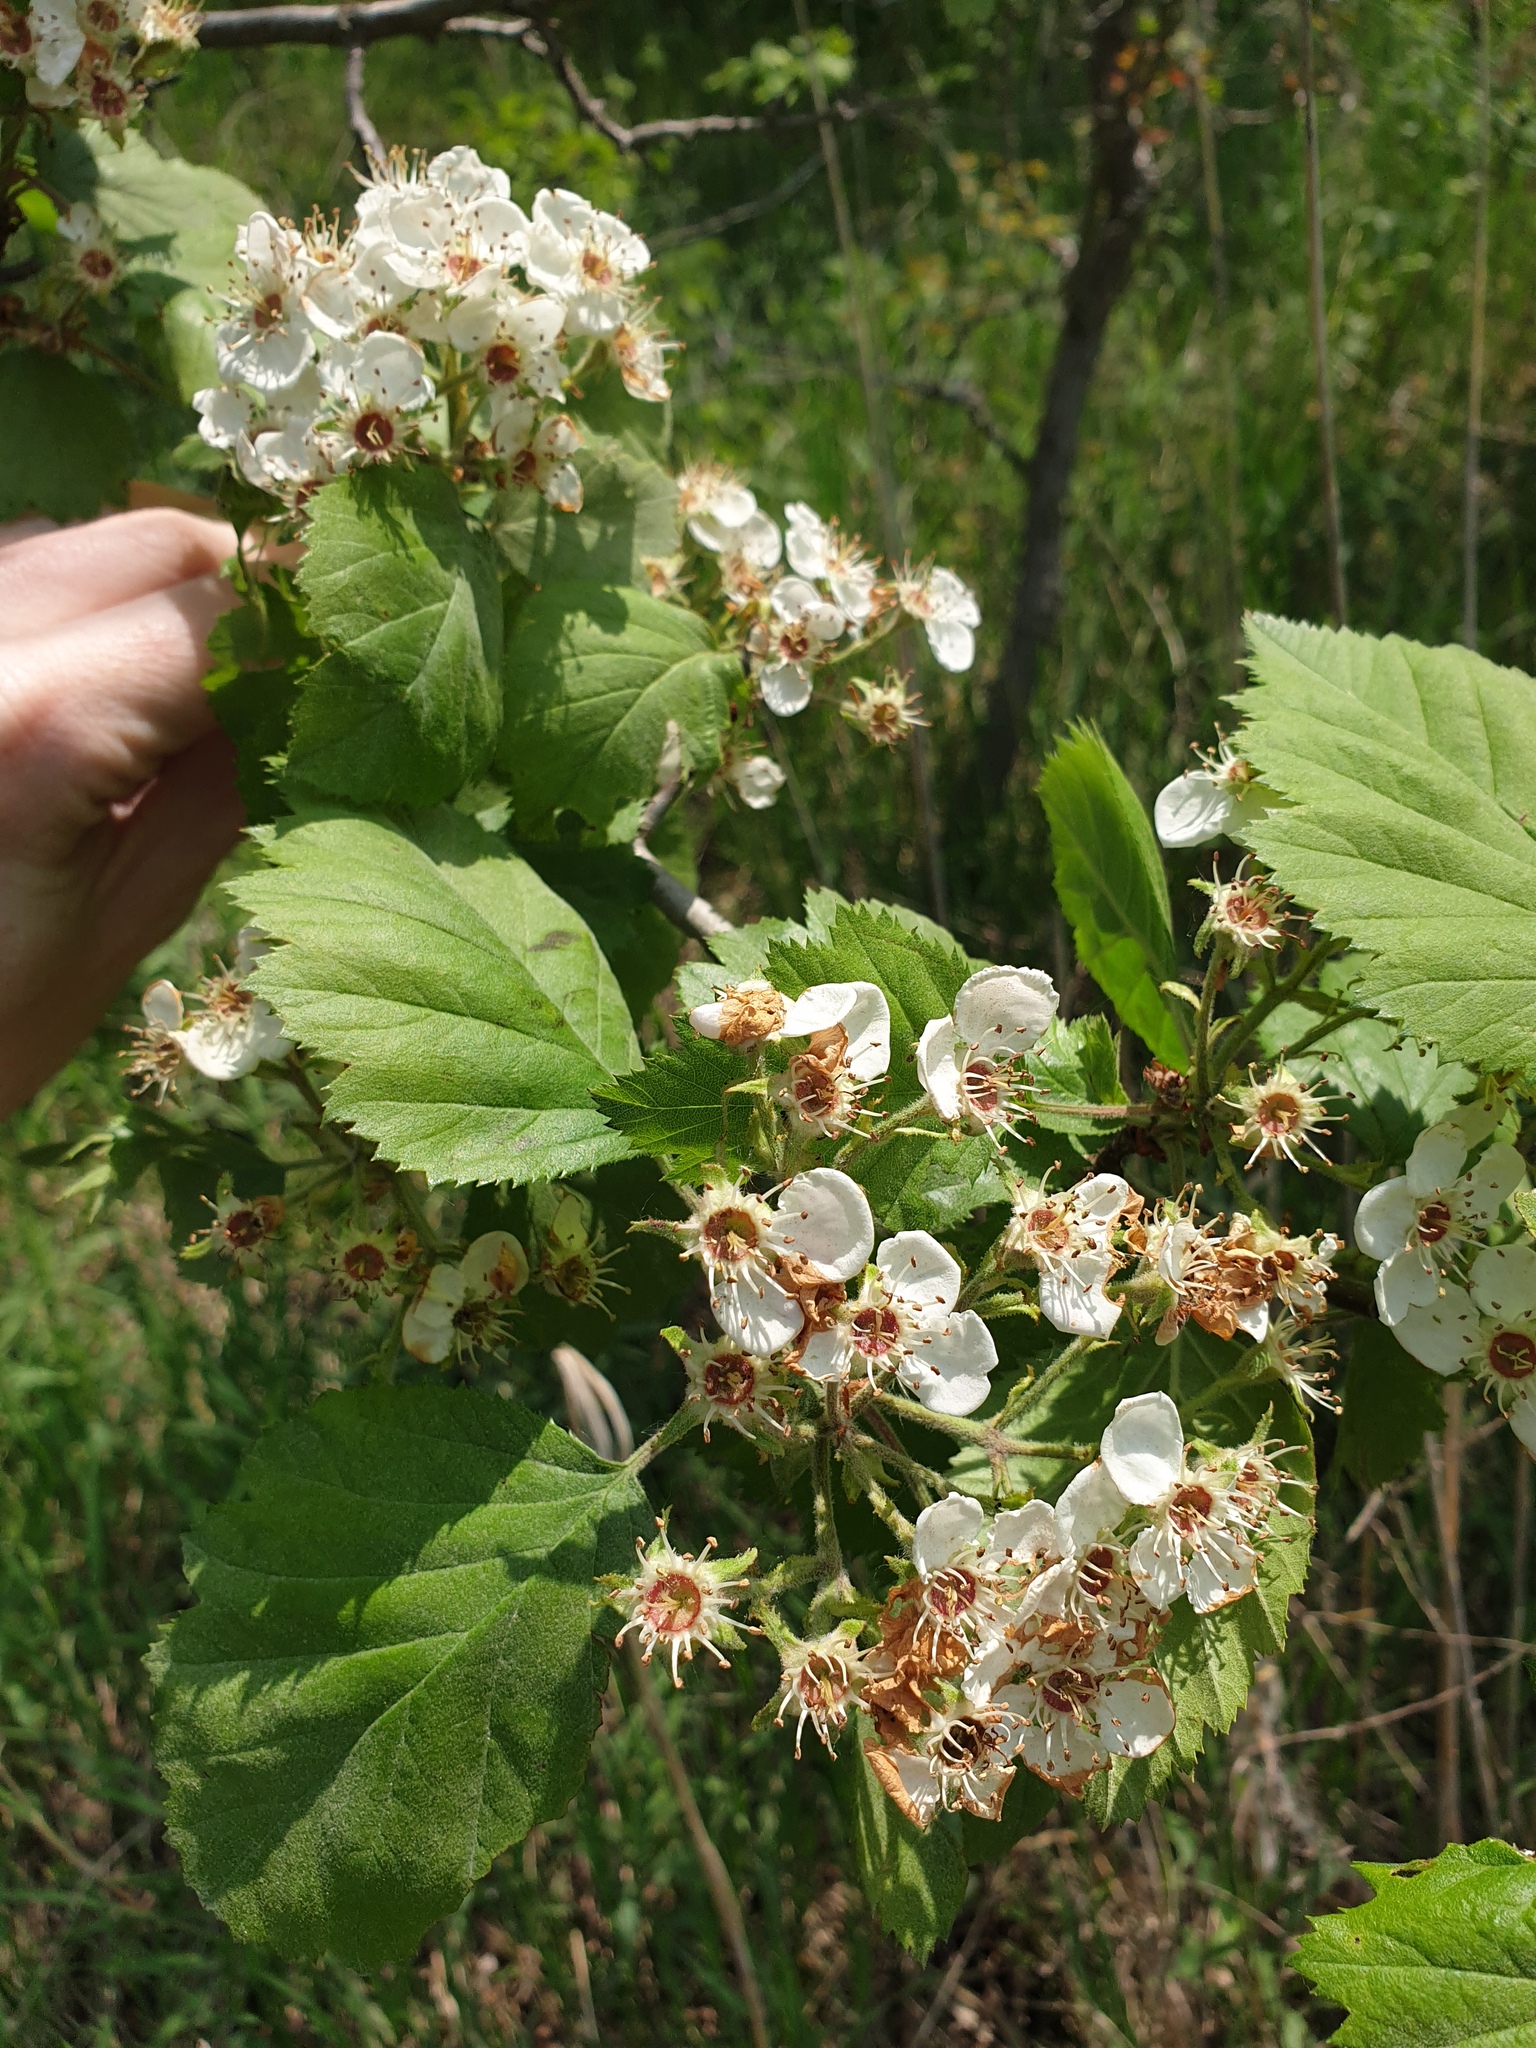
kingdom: Plantae
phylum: Tracheophyta
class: Magnoliopsida
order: Rosales
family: Rosaceae
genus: Crataegus
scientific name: Crataegus mollis
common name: Downy hawthorn
